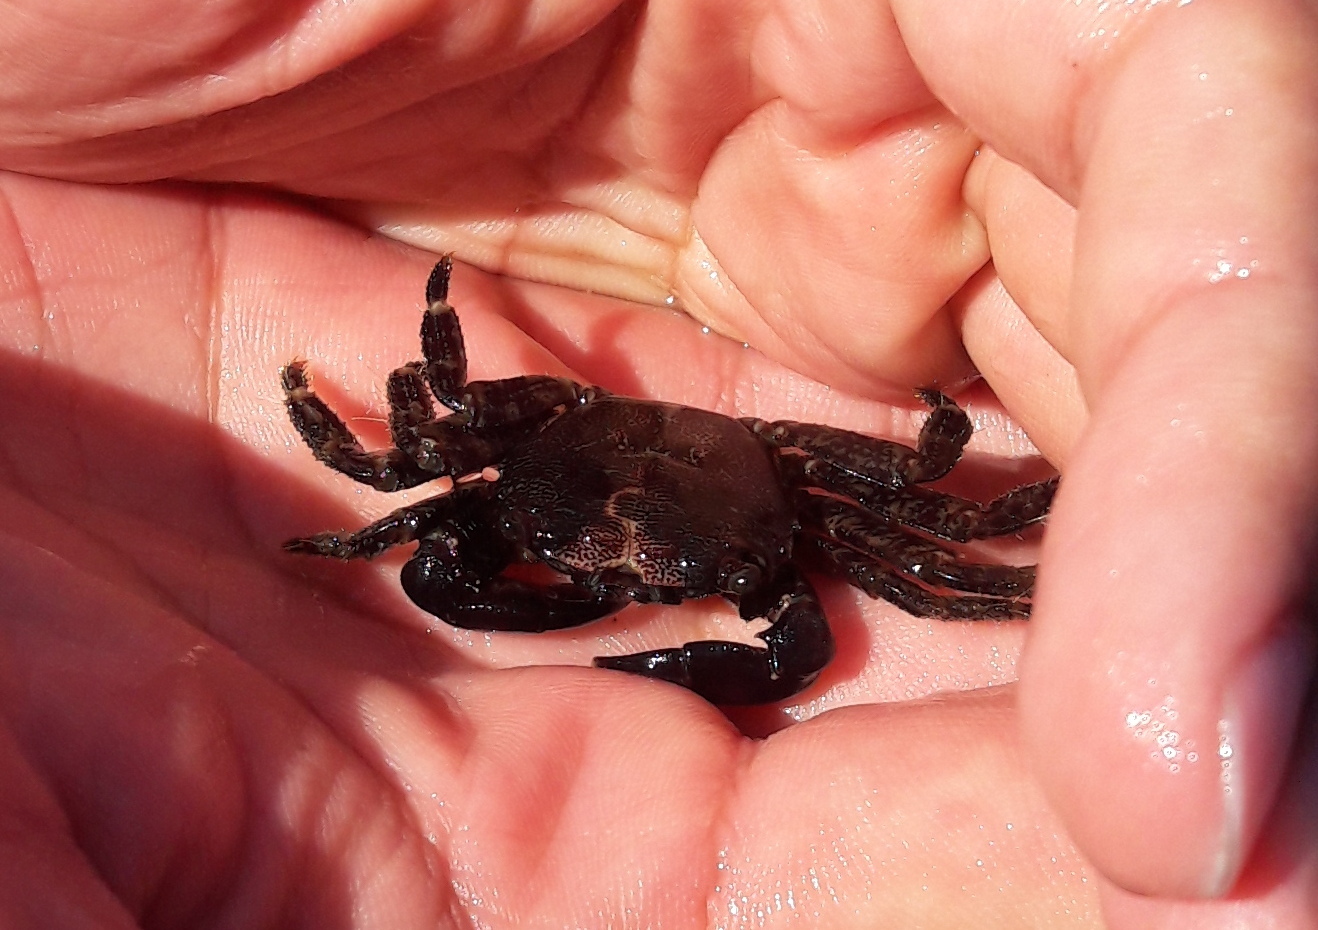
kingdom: Animalia
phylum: Arthropoda
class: Malacostraca
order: Decapoda
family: Grapsidae
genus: Pachygrapsus
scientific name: Pachygrapsus marmoratus
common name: Marbled rock crab
